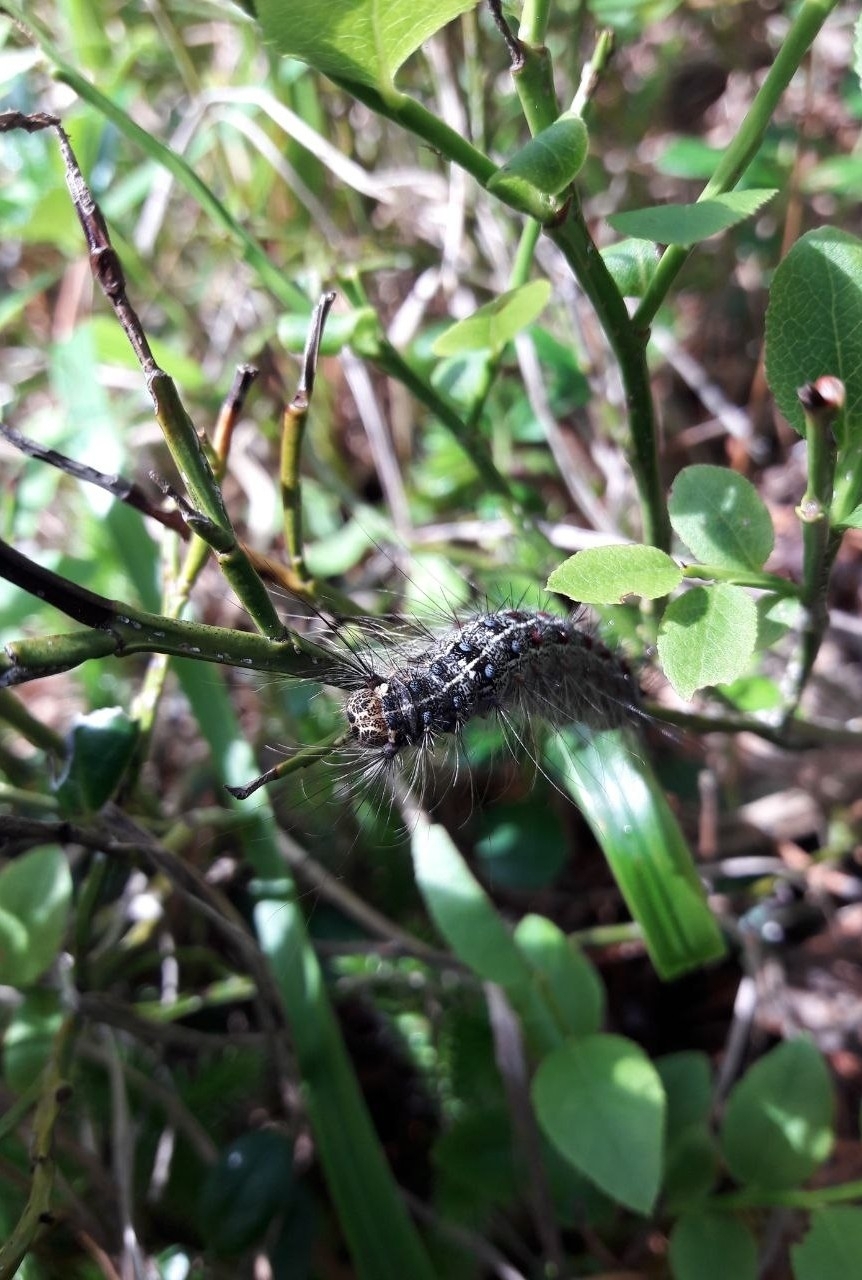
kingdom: Plantae
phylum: Tracheophyta
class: Magnoliopsida
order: Ericales
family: Ericaceae
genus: Vaccinium
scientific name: Vaccinium myrtillus
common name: Bilberry
